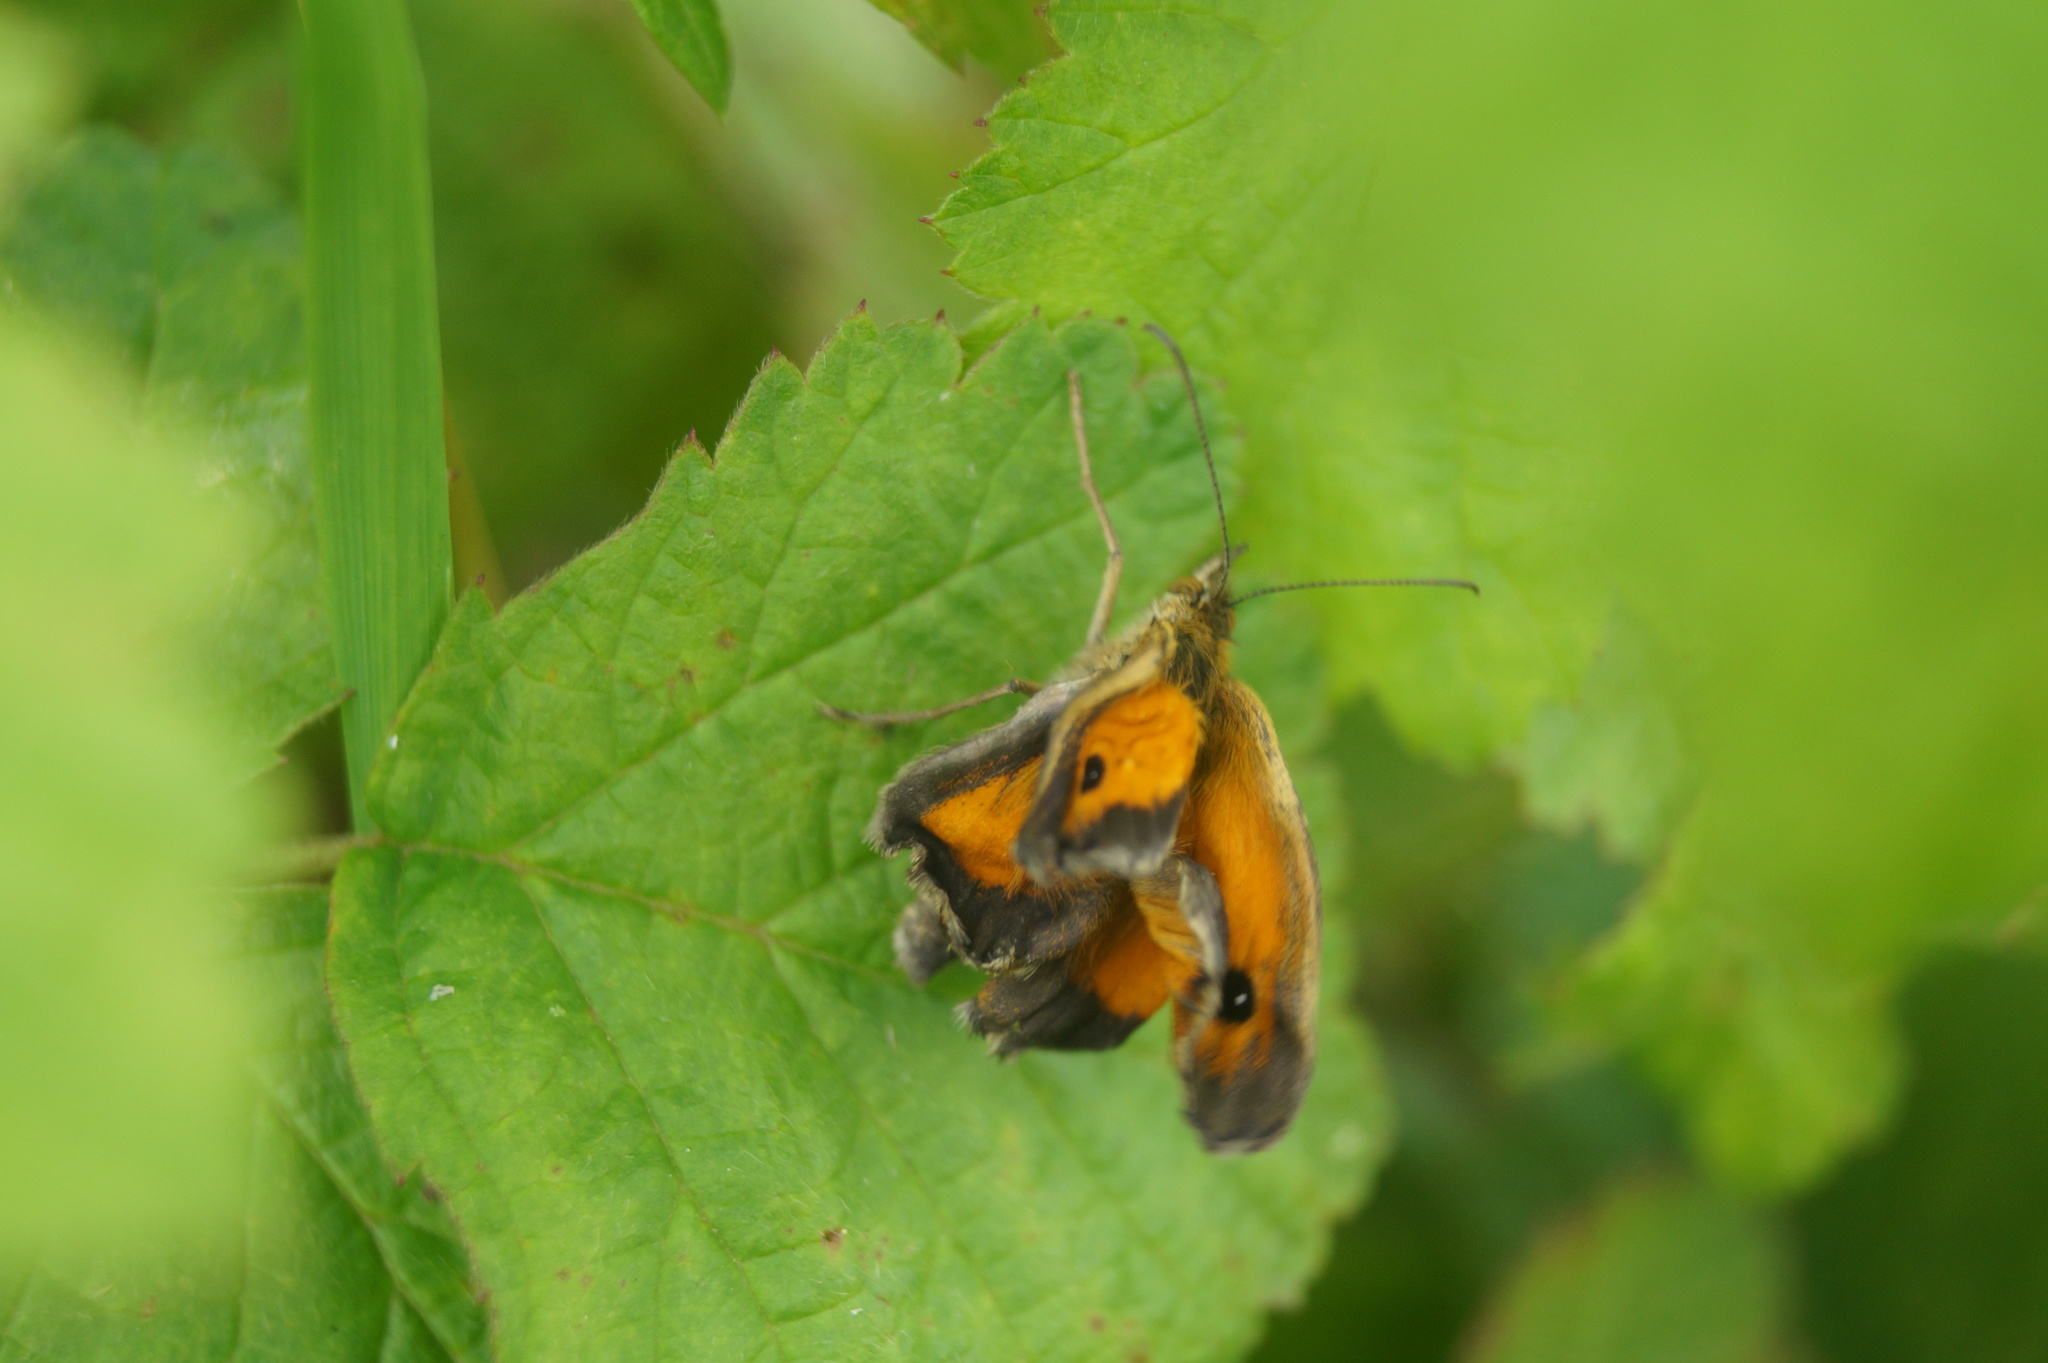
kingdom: Animalia
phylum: Arthropoda
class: Insecta
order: Lepidoptera
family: Nymphalidae
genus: Pyronia
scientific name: Pyronia tithonus
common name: Gatekeeper
